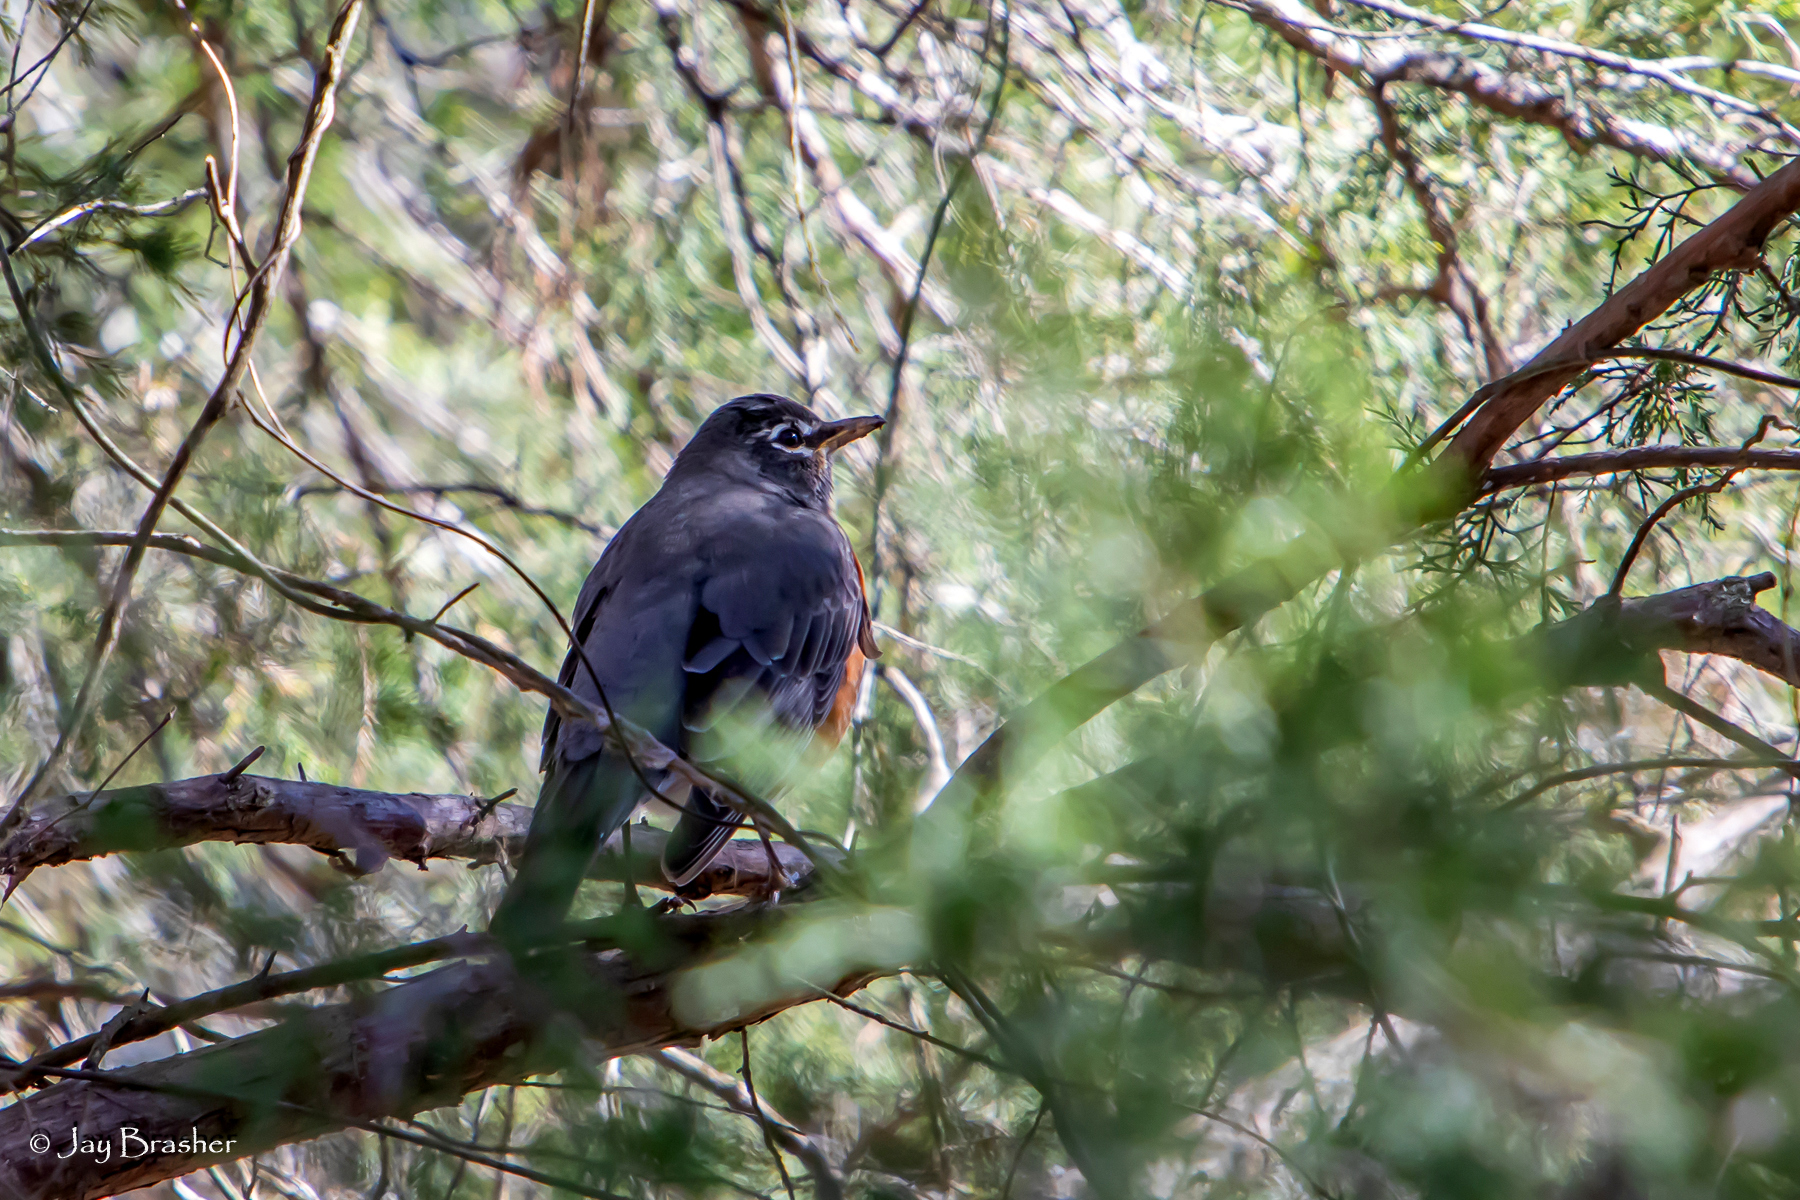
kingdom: Animalia
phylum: Chordata
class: Aves
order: Passeriformes
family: Turdidae
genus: Turdus
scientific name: Turdus migratorius
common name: American robin
